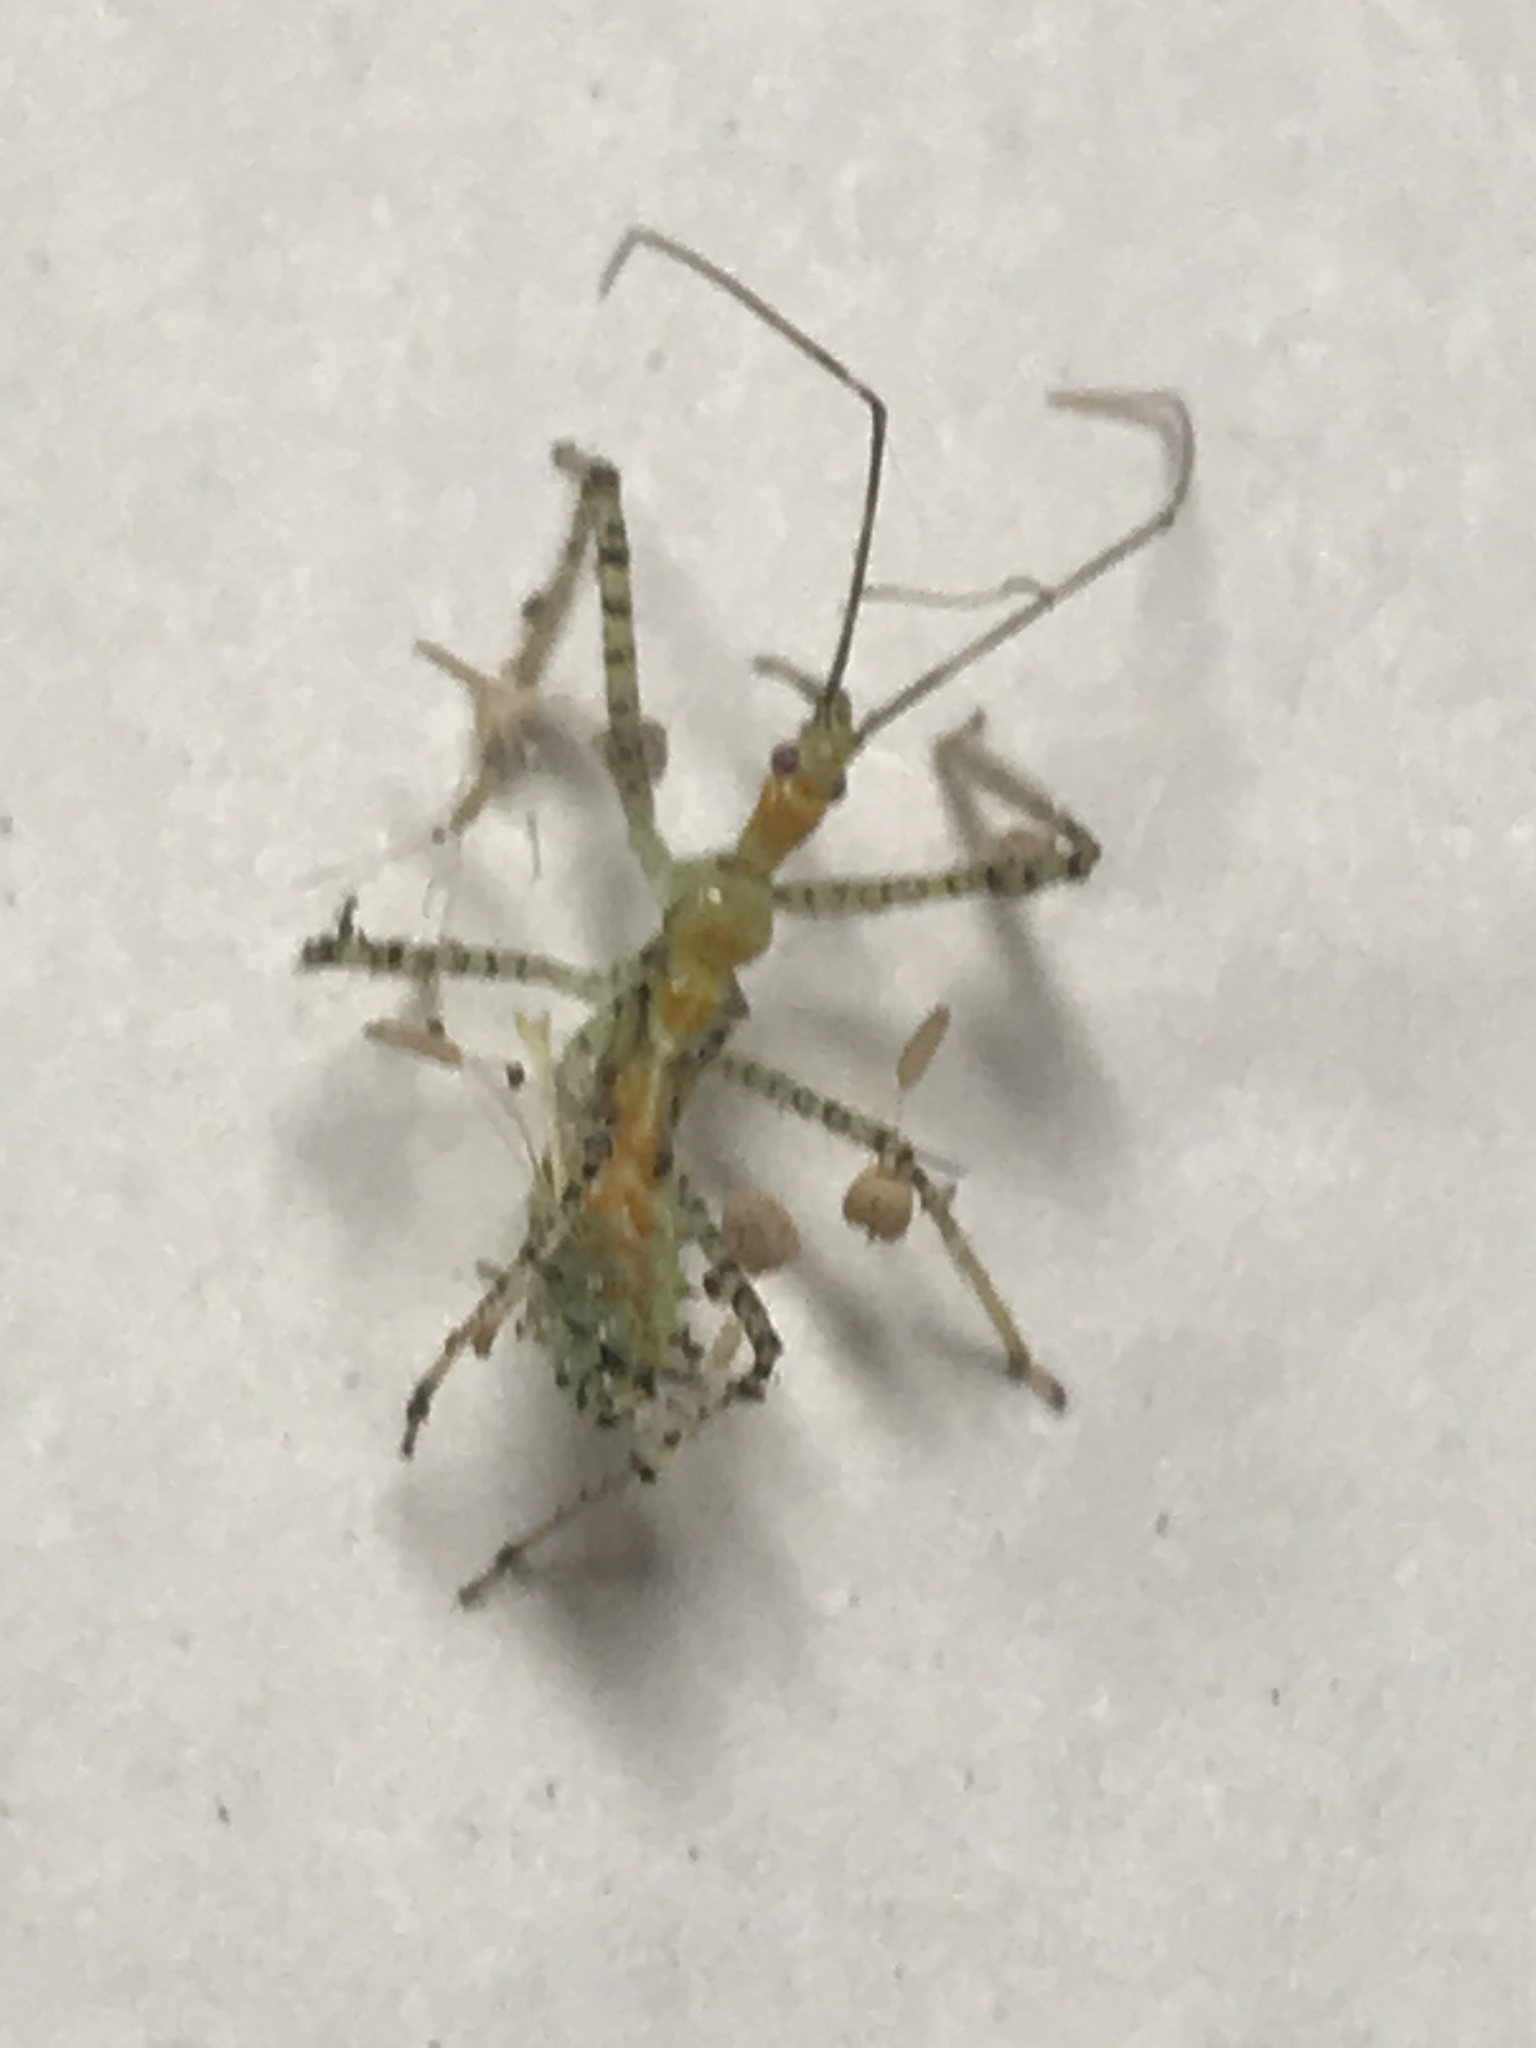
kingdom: Animalia
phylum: Arthropoda
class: Insecta
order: Hemiptera
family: Reduviidae
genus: Zelus
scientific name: Zelus renardii
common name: Assassin bug
